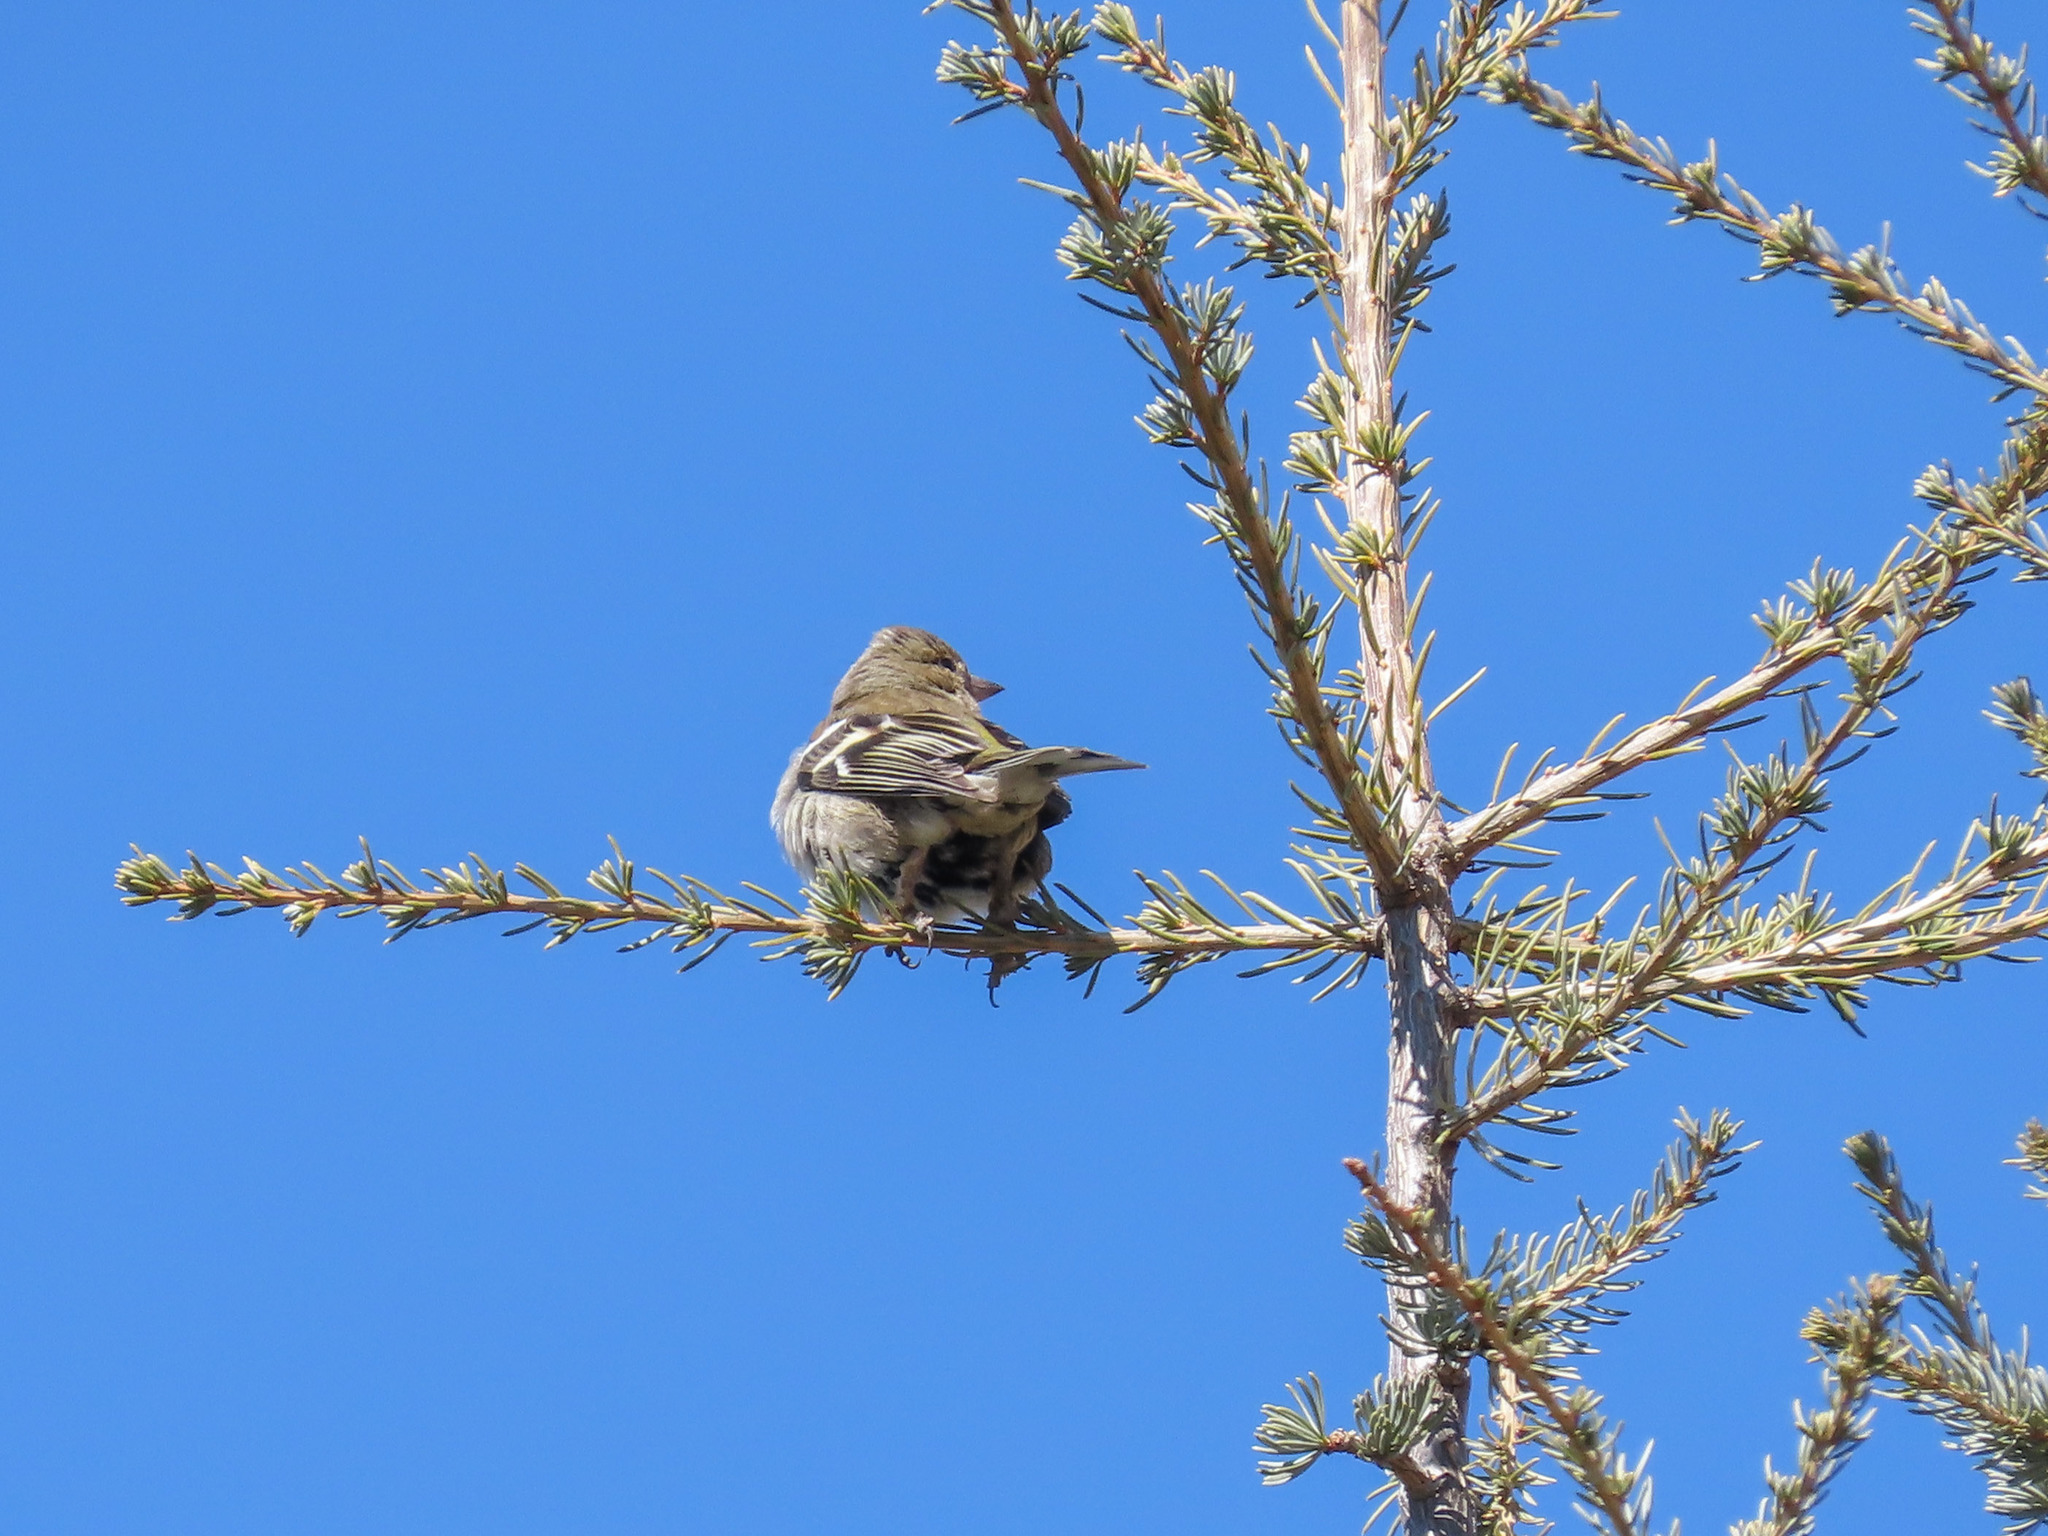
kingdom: Animalia
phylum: Chordata
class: Aves
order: Passeriformes
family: Fringillidae
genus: Fringilla
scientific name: Fringilla coelebs
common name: Common chaffinch
